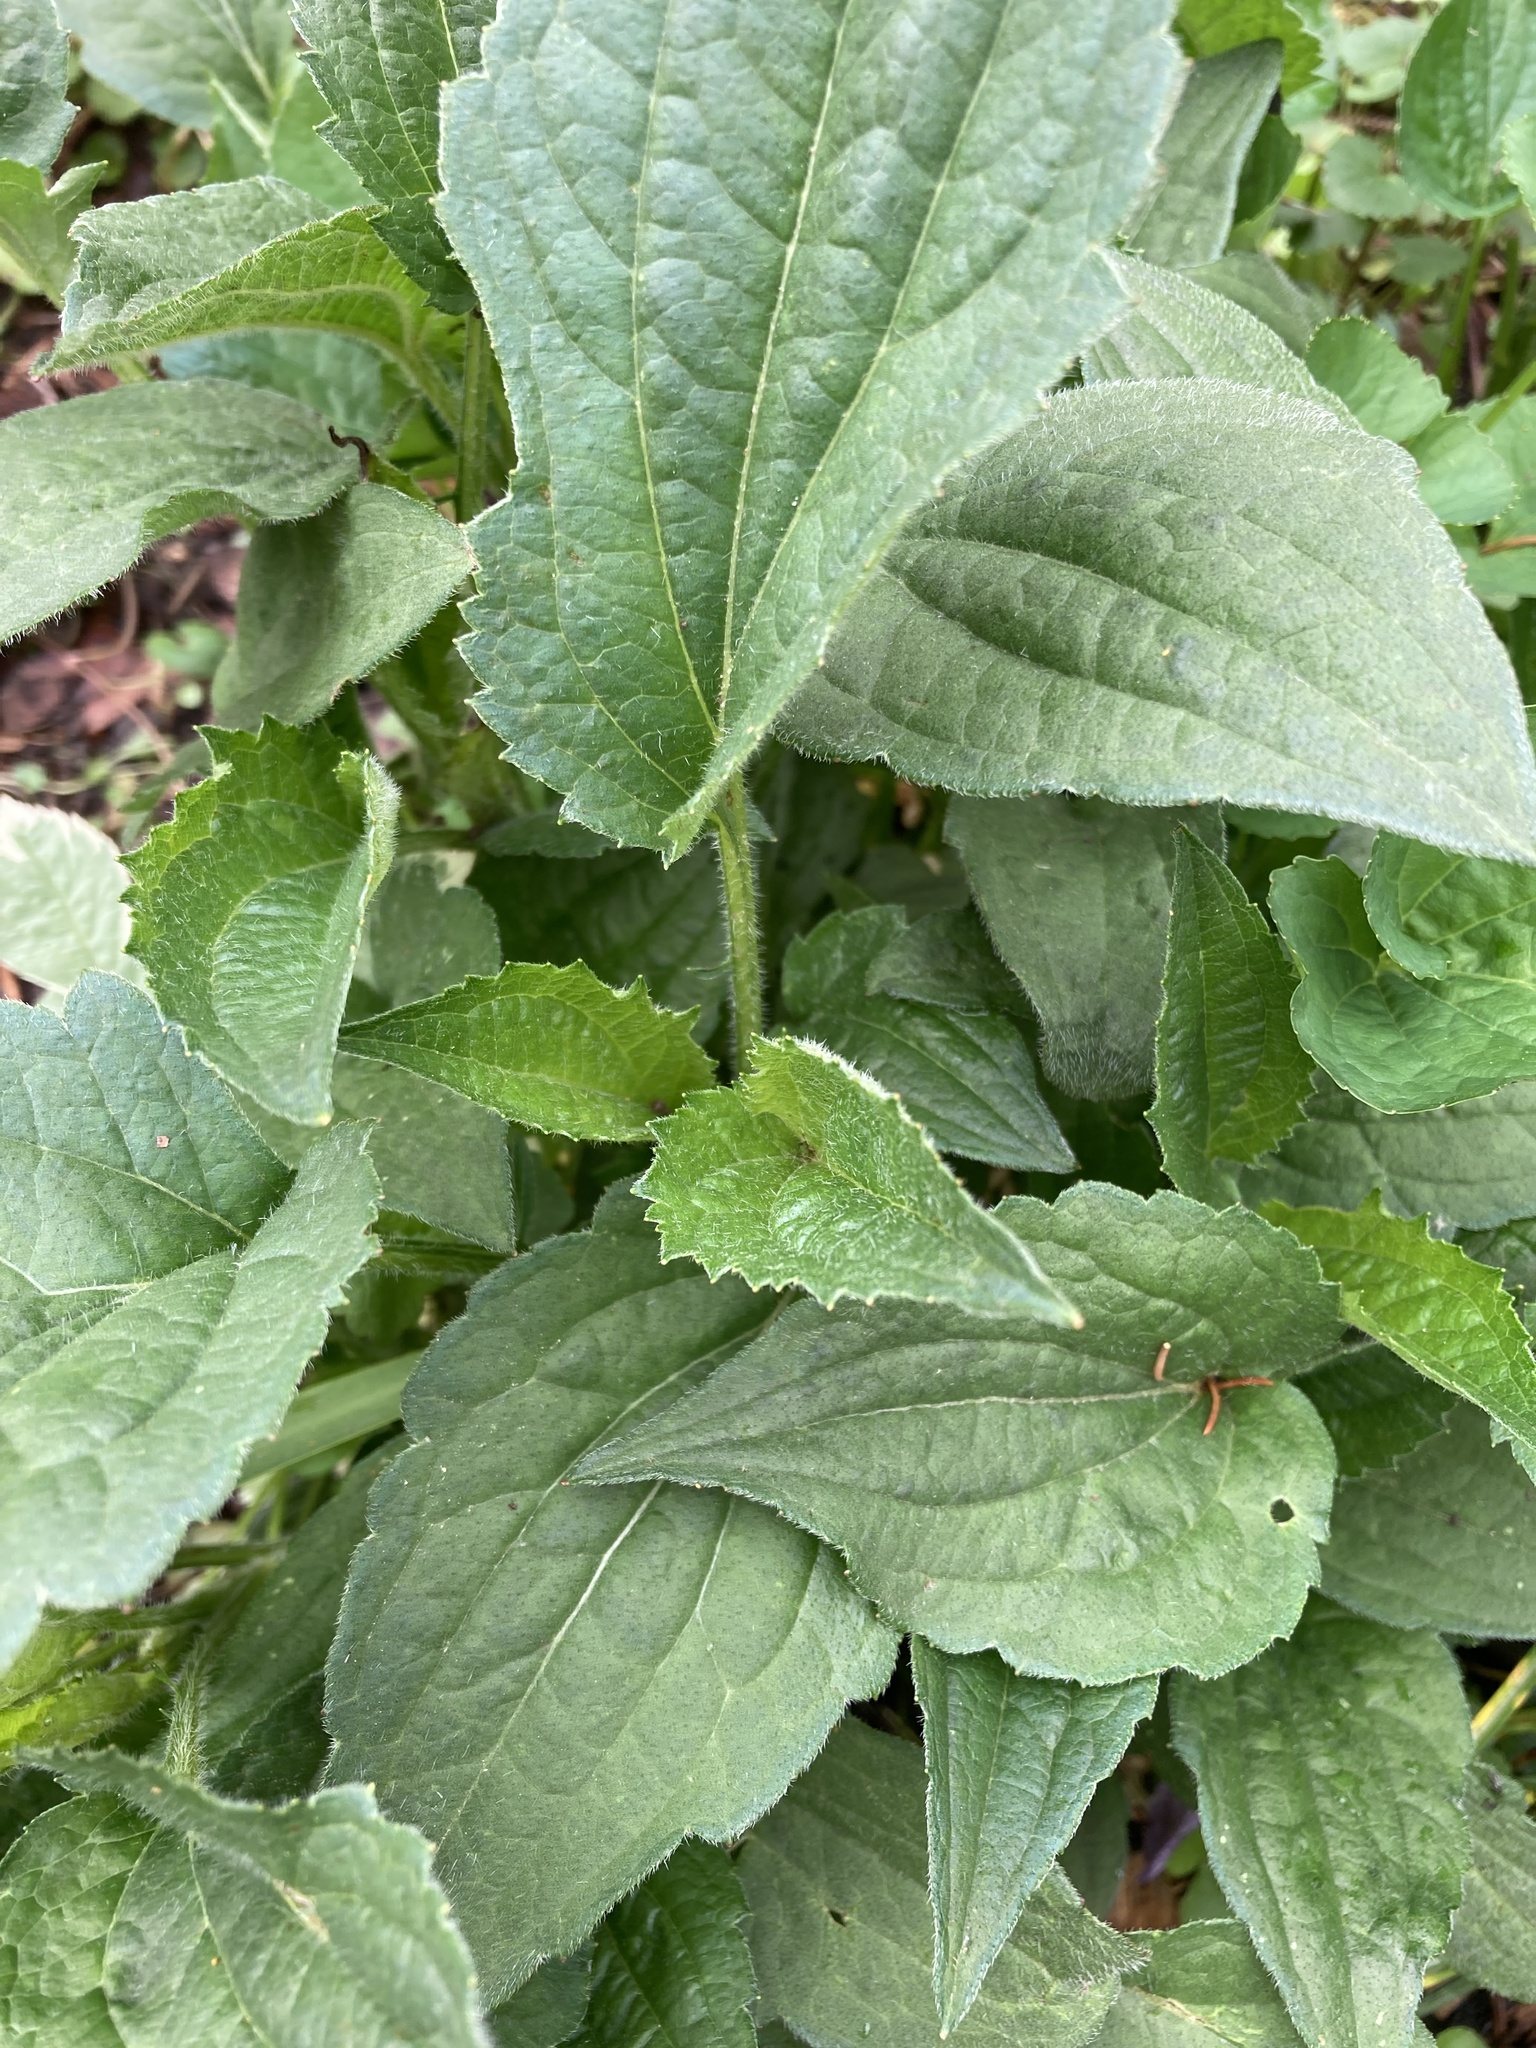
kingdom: Plantae
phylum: Tracheophyta
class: Magnoliopsida
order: Asterales
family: Asteraceae
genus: Rudbeckia
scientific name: Rudbeckia subtomentosa
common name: Sweet coneflower
